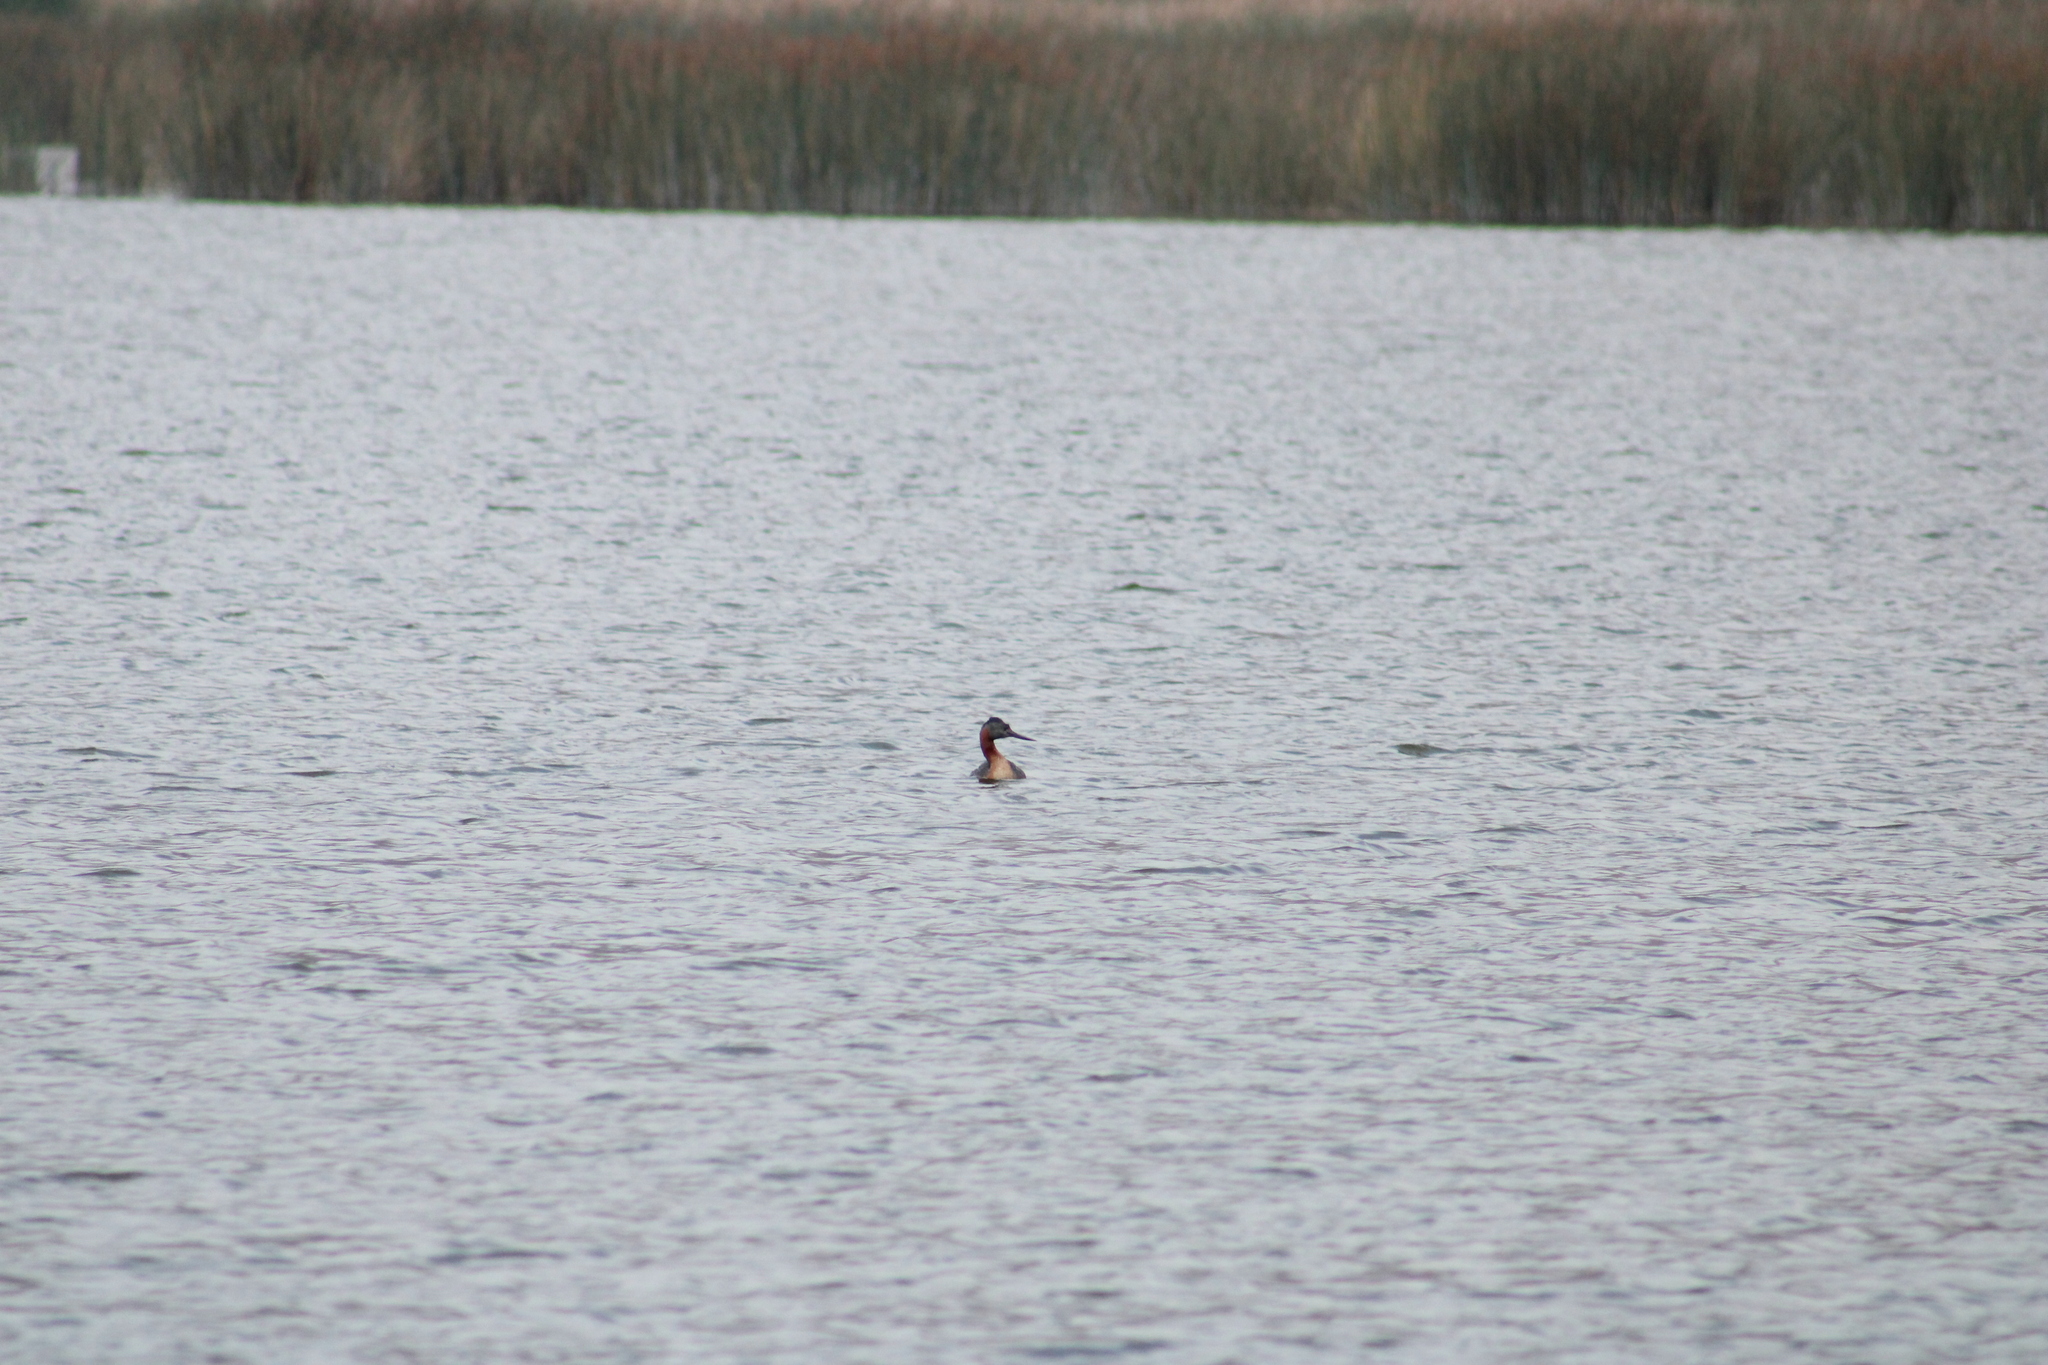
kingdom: Animalia
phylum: Chordata
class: Aves
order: Podicipediformes
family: Podicipedidae
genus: Podiceps
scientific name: Podiceps major
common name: Great grebe
